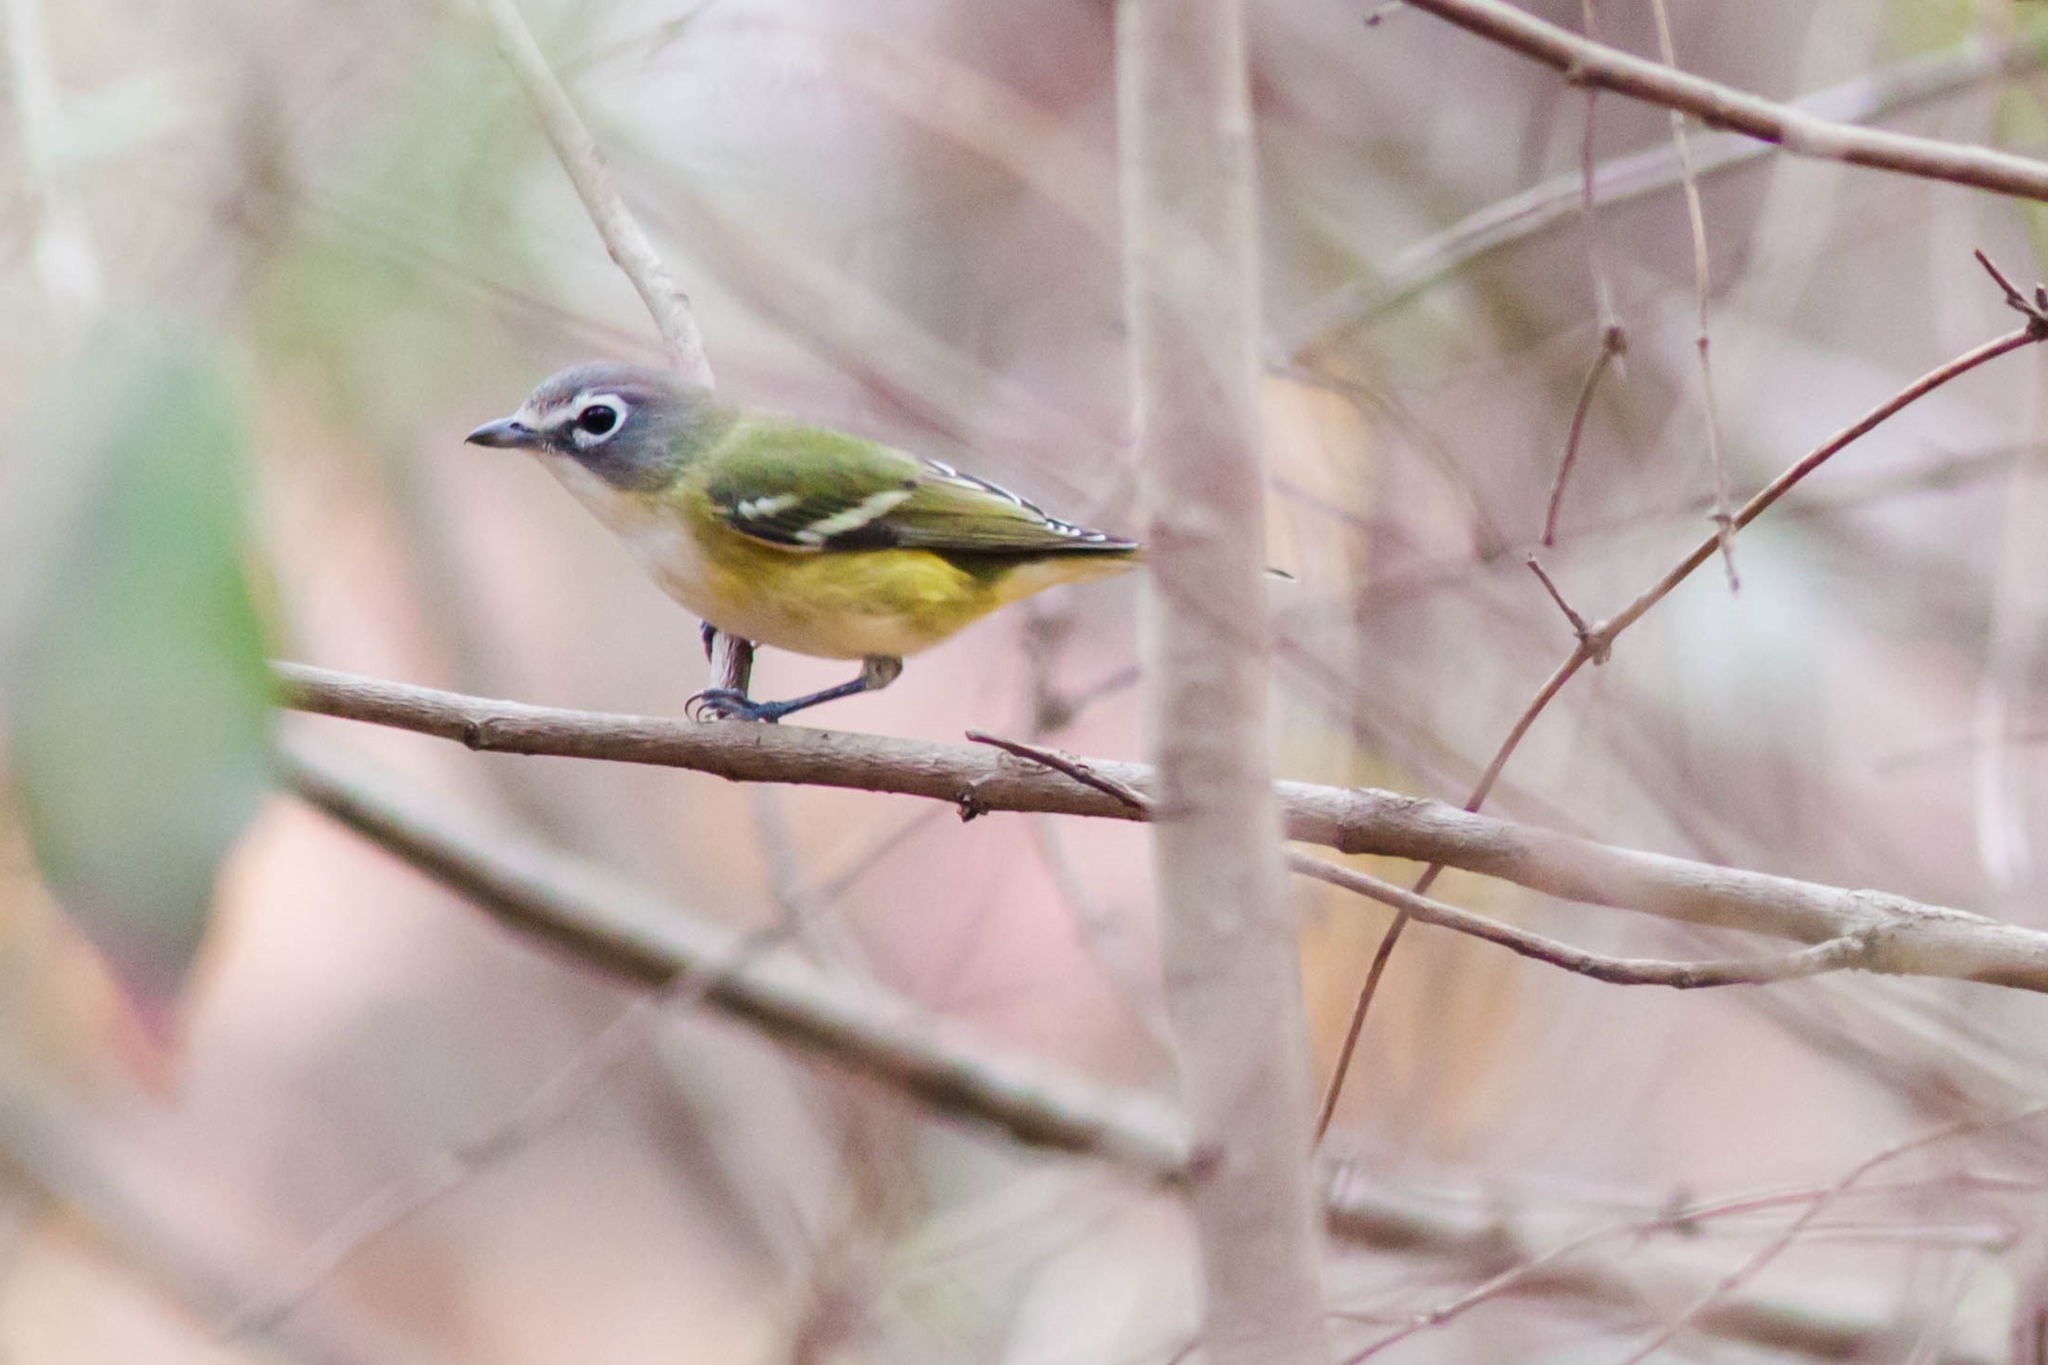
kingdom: Animalia
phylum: Chordata
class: Aves
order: Passeriformes
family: Vireonidae
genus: Vireo
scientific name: Vireo solitarius
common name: Blue-headed vireo
